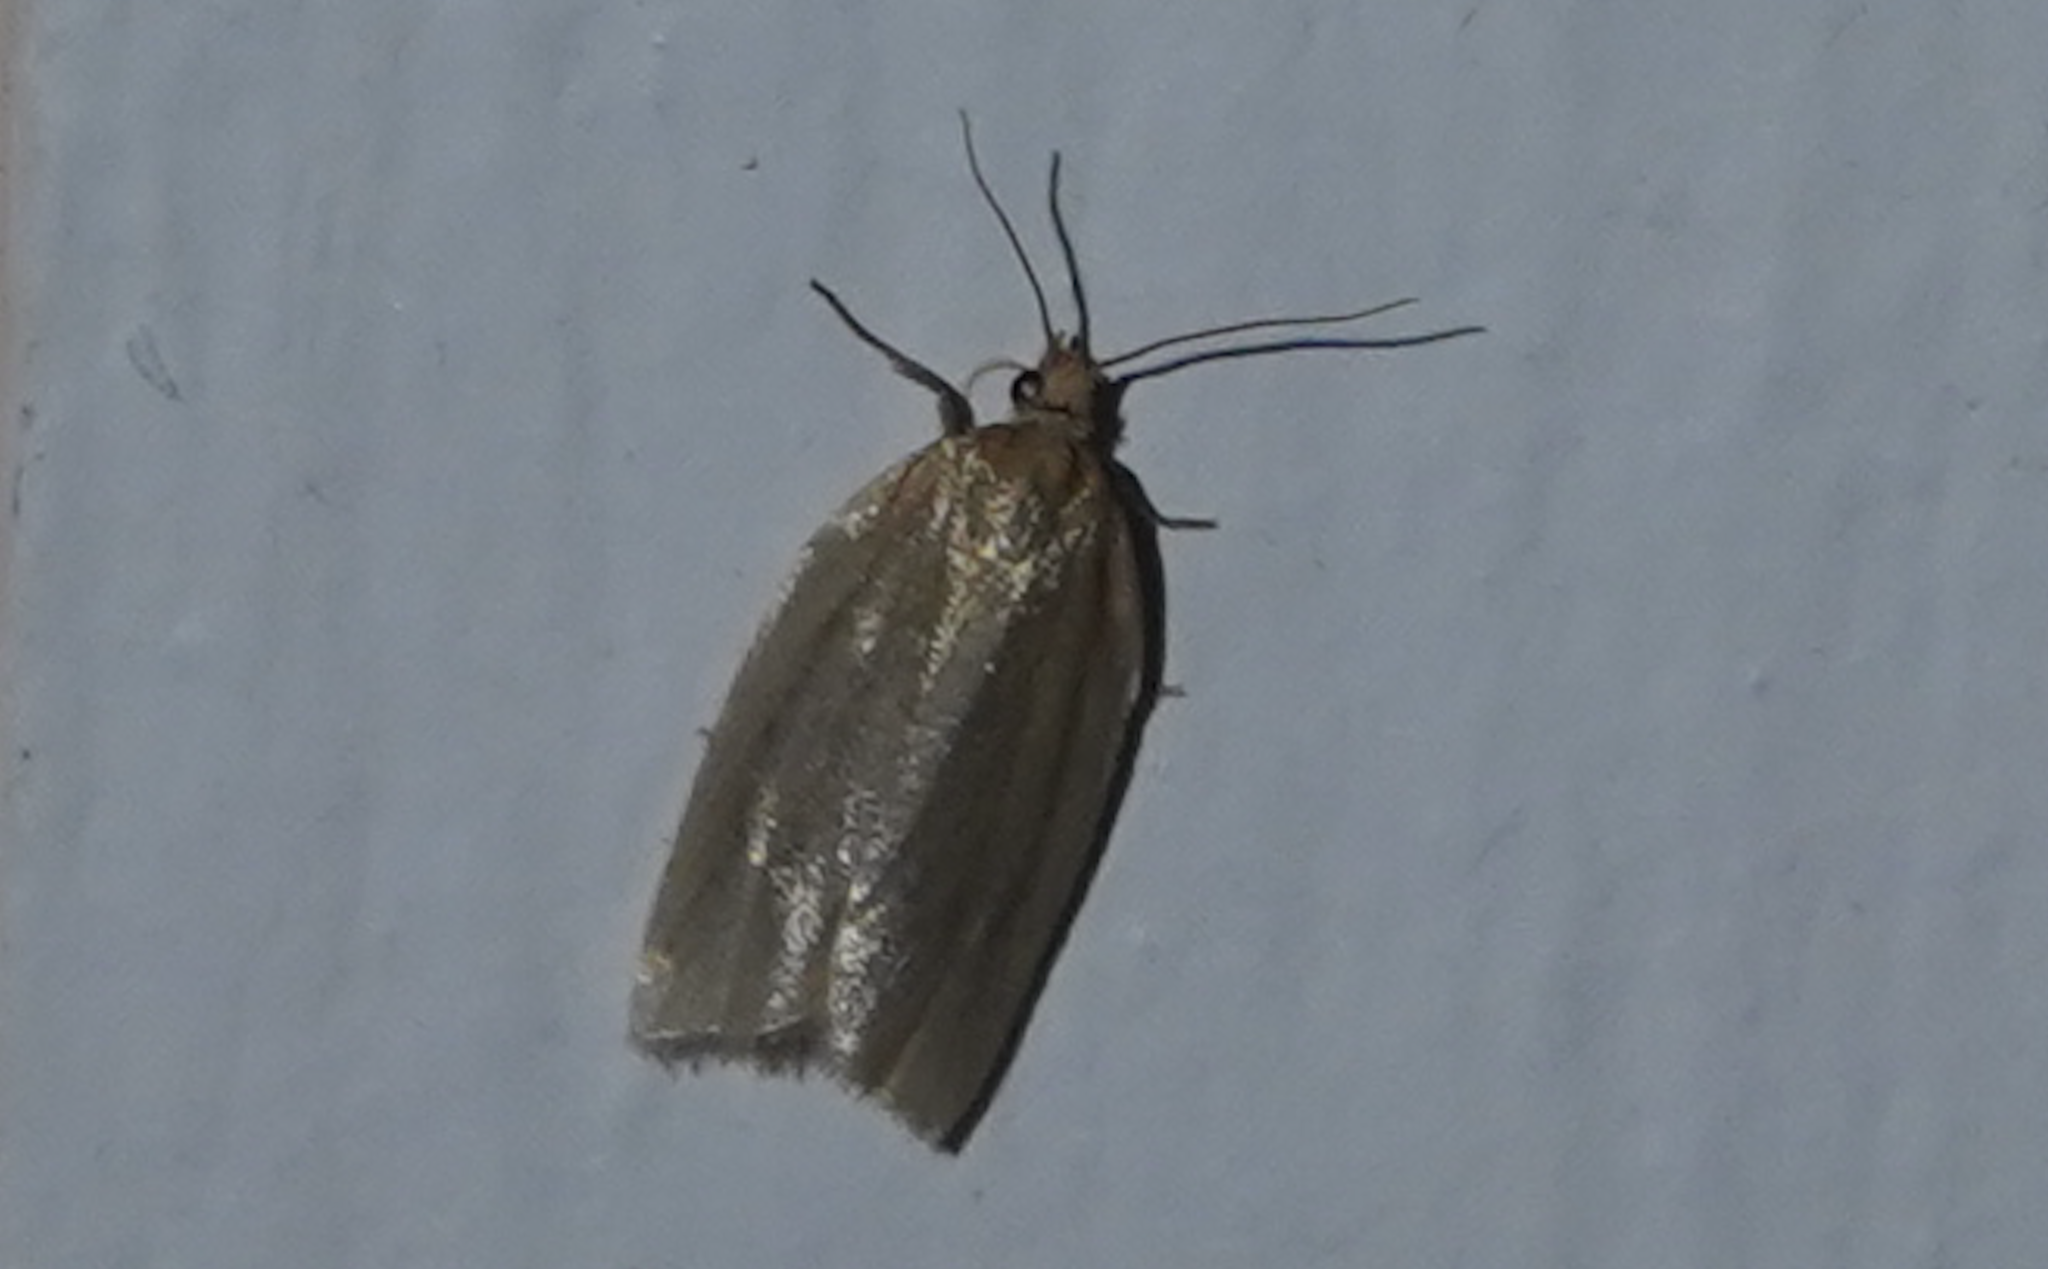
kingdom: Animalia
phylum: Arthropoda
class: Insecta
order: Lepidoptera
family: Tortricidae
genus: Clepsis
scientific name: Clepsis clemensiana
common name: Clemens' clepsis moth
